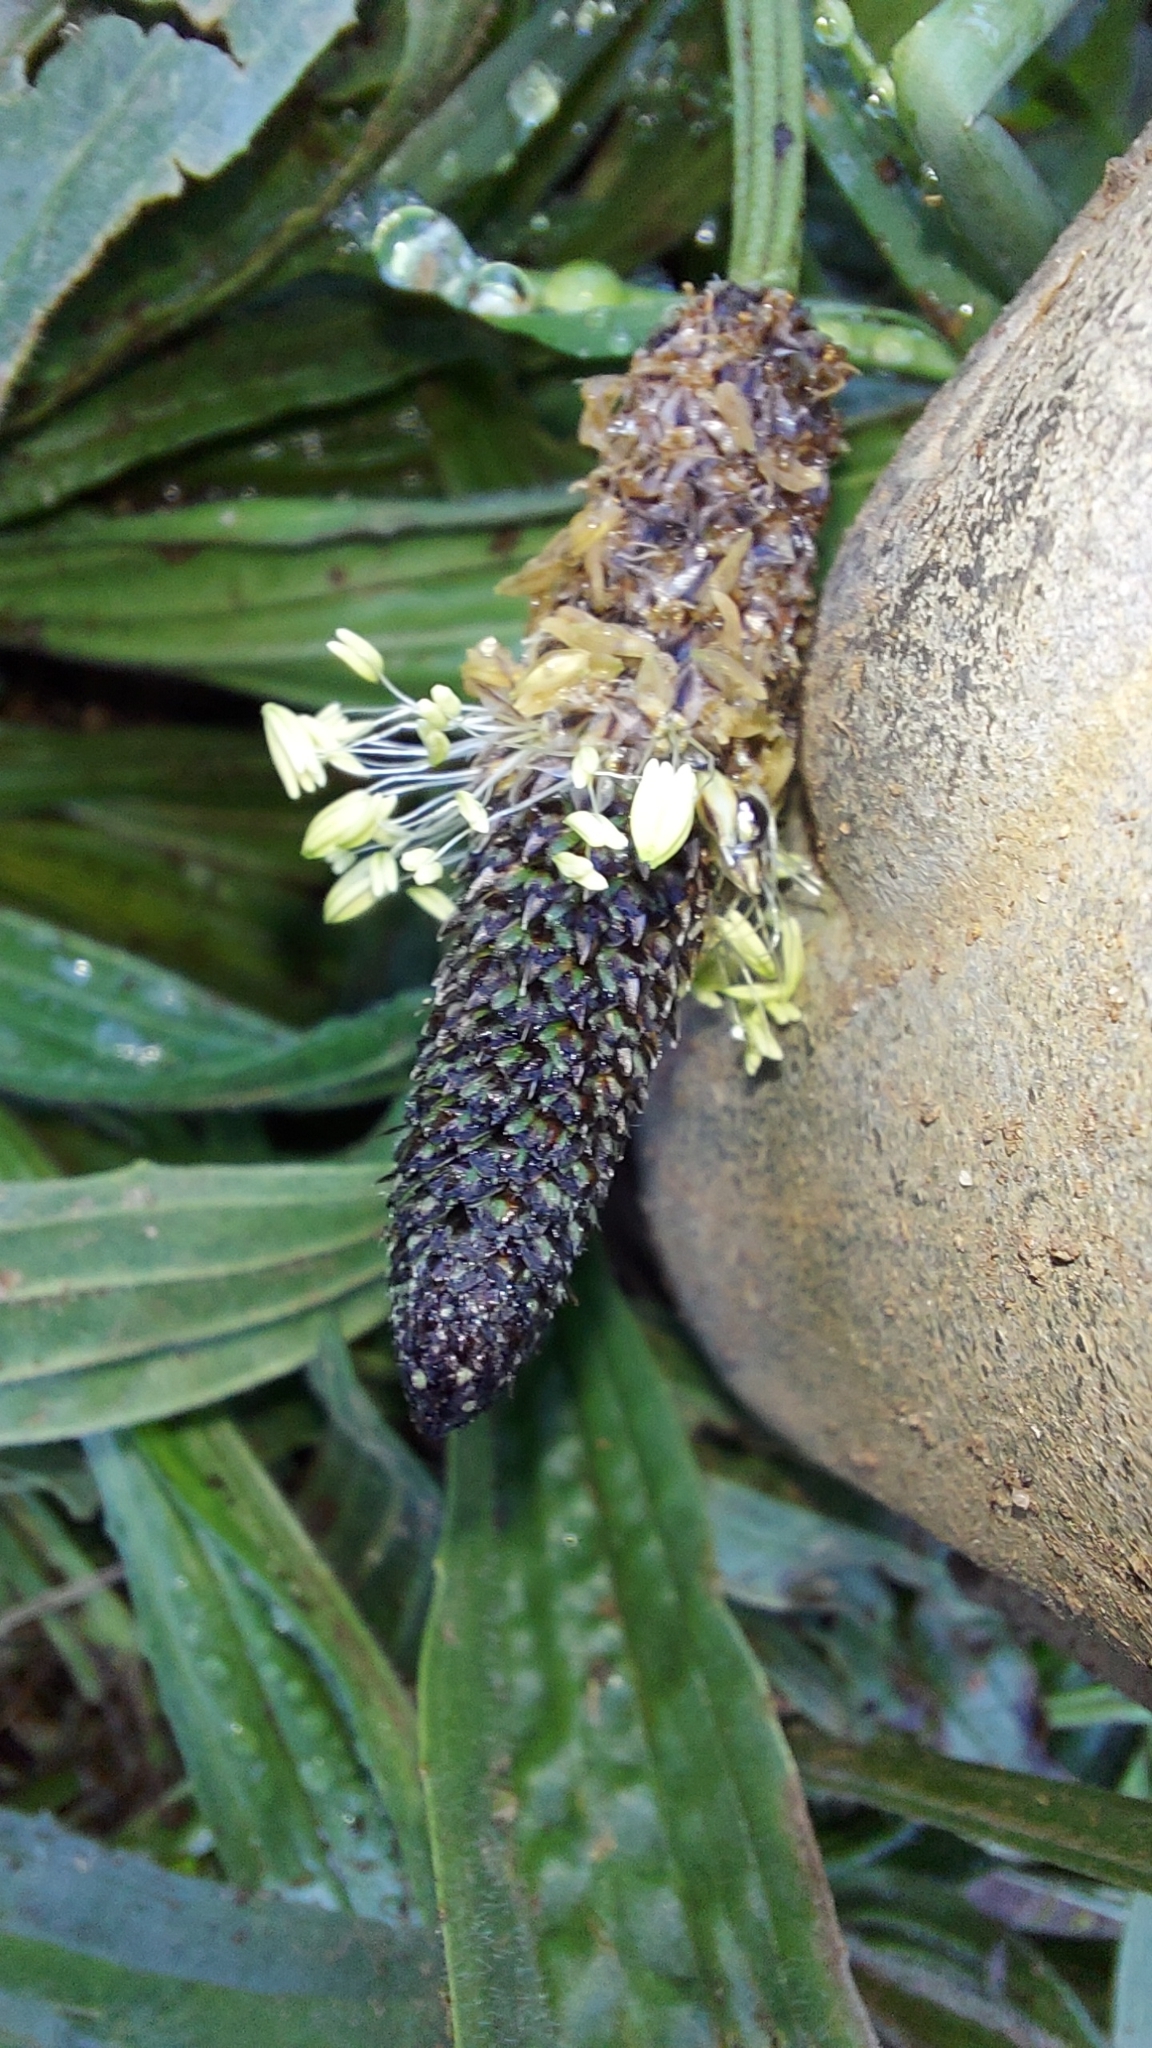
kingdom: Plantae
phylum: Tracheophyta
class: Magnoliopsida
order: Lamiales
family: Plantaginaceae
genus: Plantago
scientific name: Plantago lanceolata
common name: Ribwort plantain
